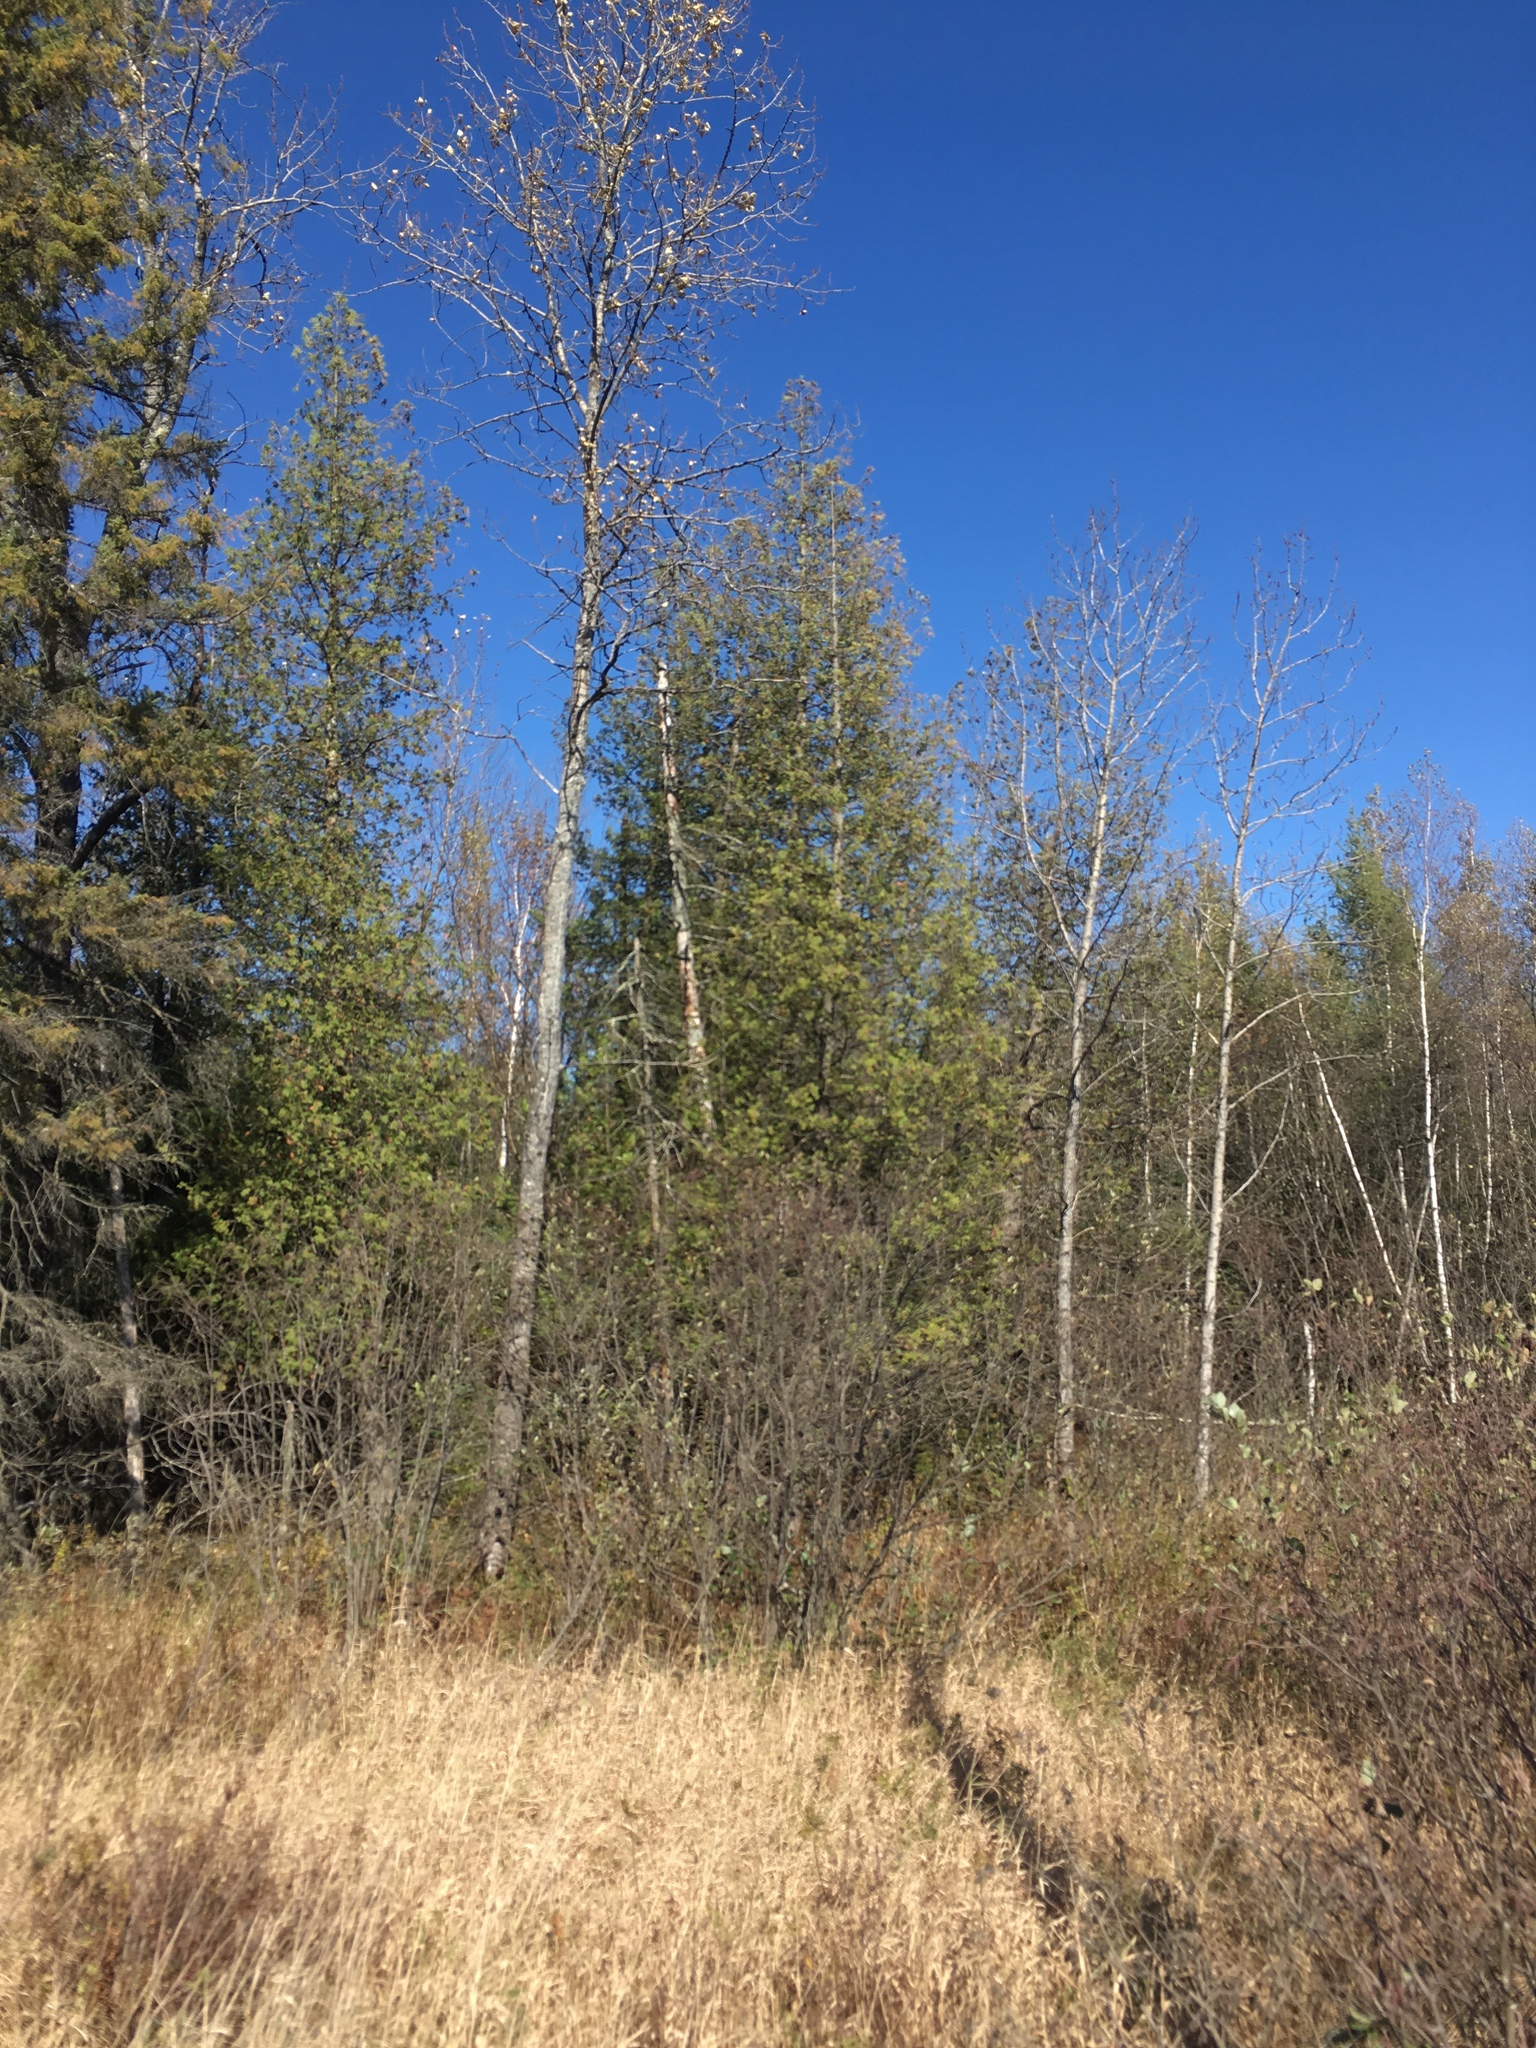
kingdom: Plantae
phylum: Tracheophyta
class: Pinopsida
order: Pinales
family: Cupressaceae
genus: Thuja
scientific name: Thuja occidentalis
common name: Northern white-cedar
